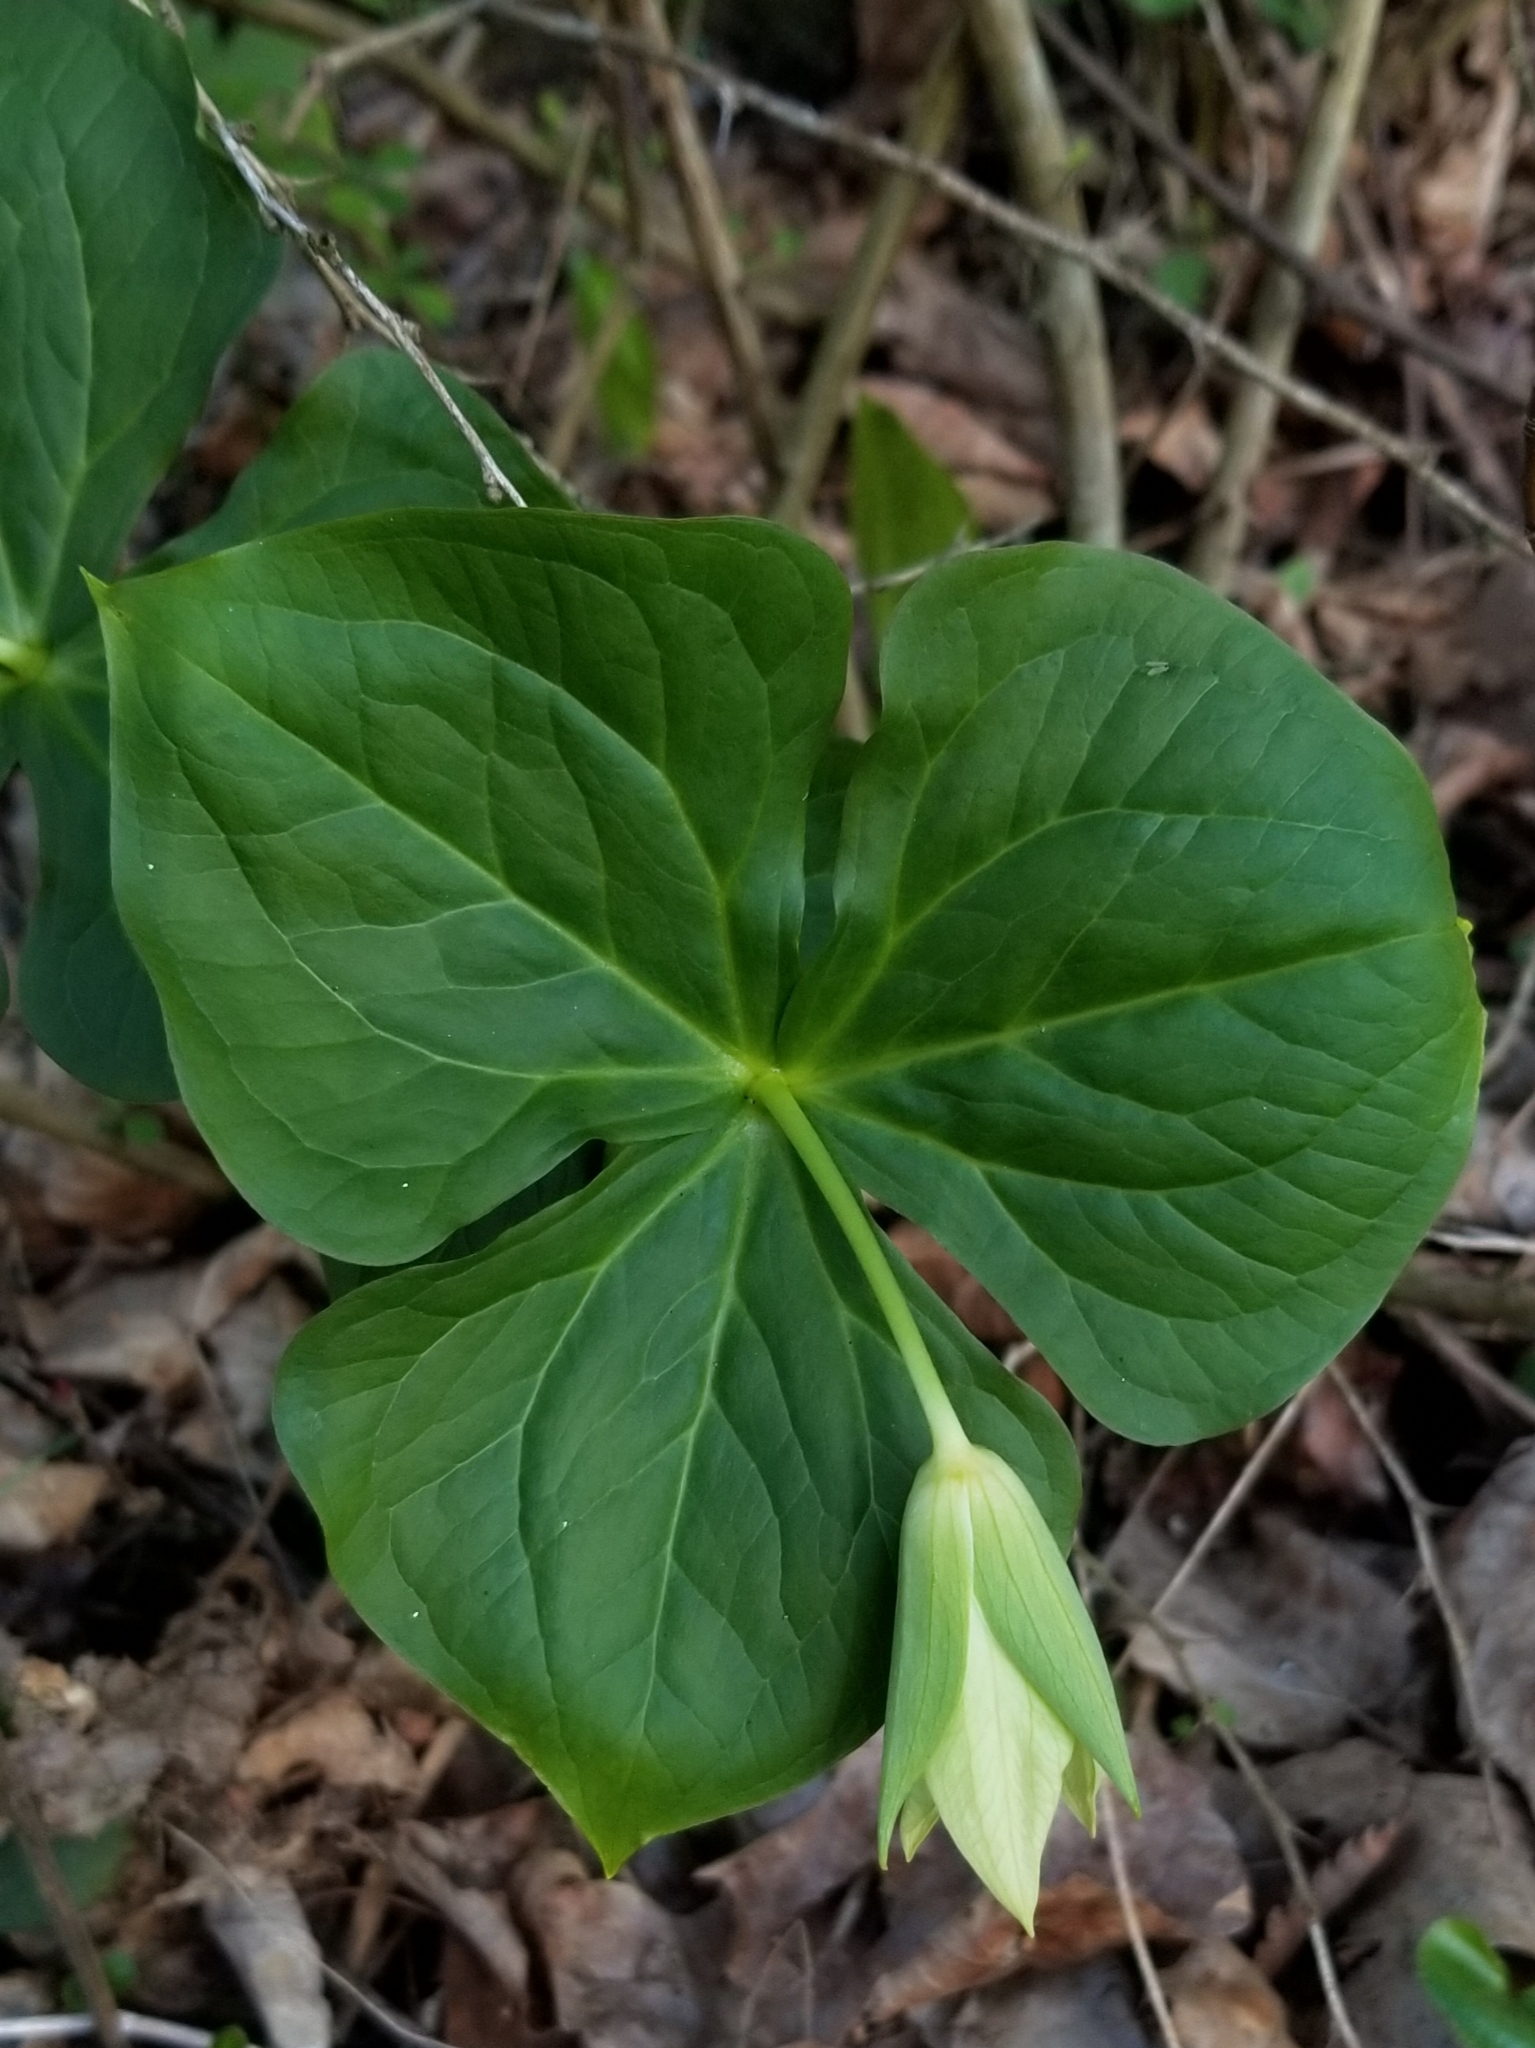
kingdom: Plantae
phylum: Tracheophyta
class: Liliopsida
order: Liliales
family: Melanthiaceae
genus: Trillium
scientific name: Trillium erectum
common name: Purple trillium
